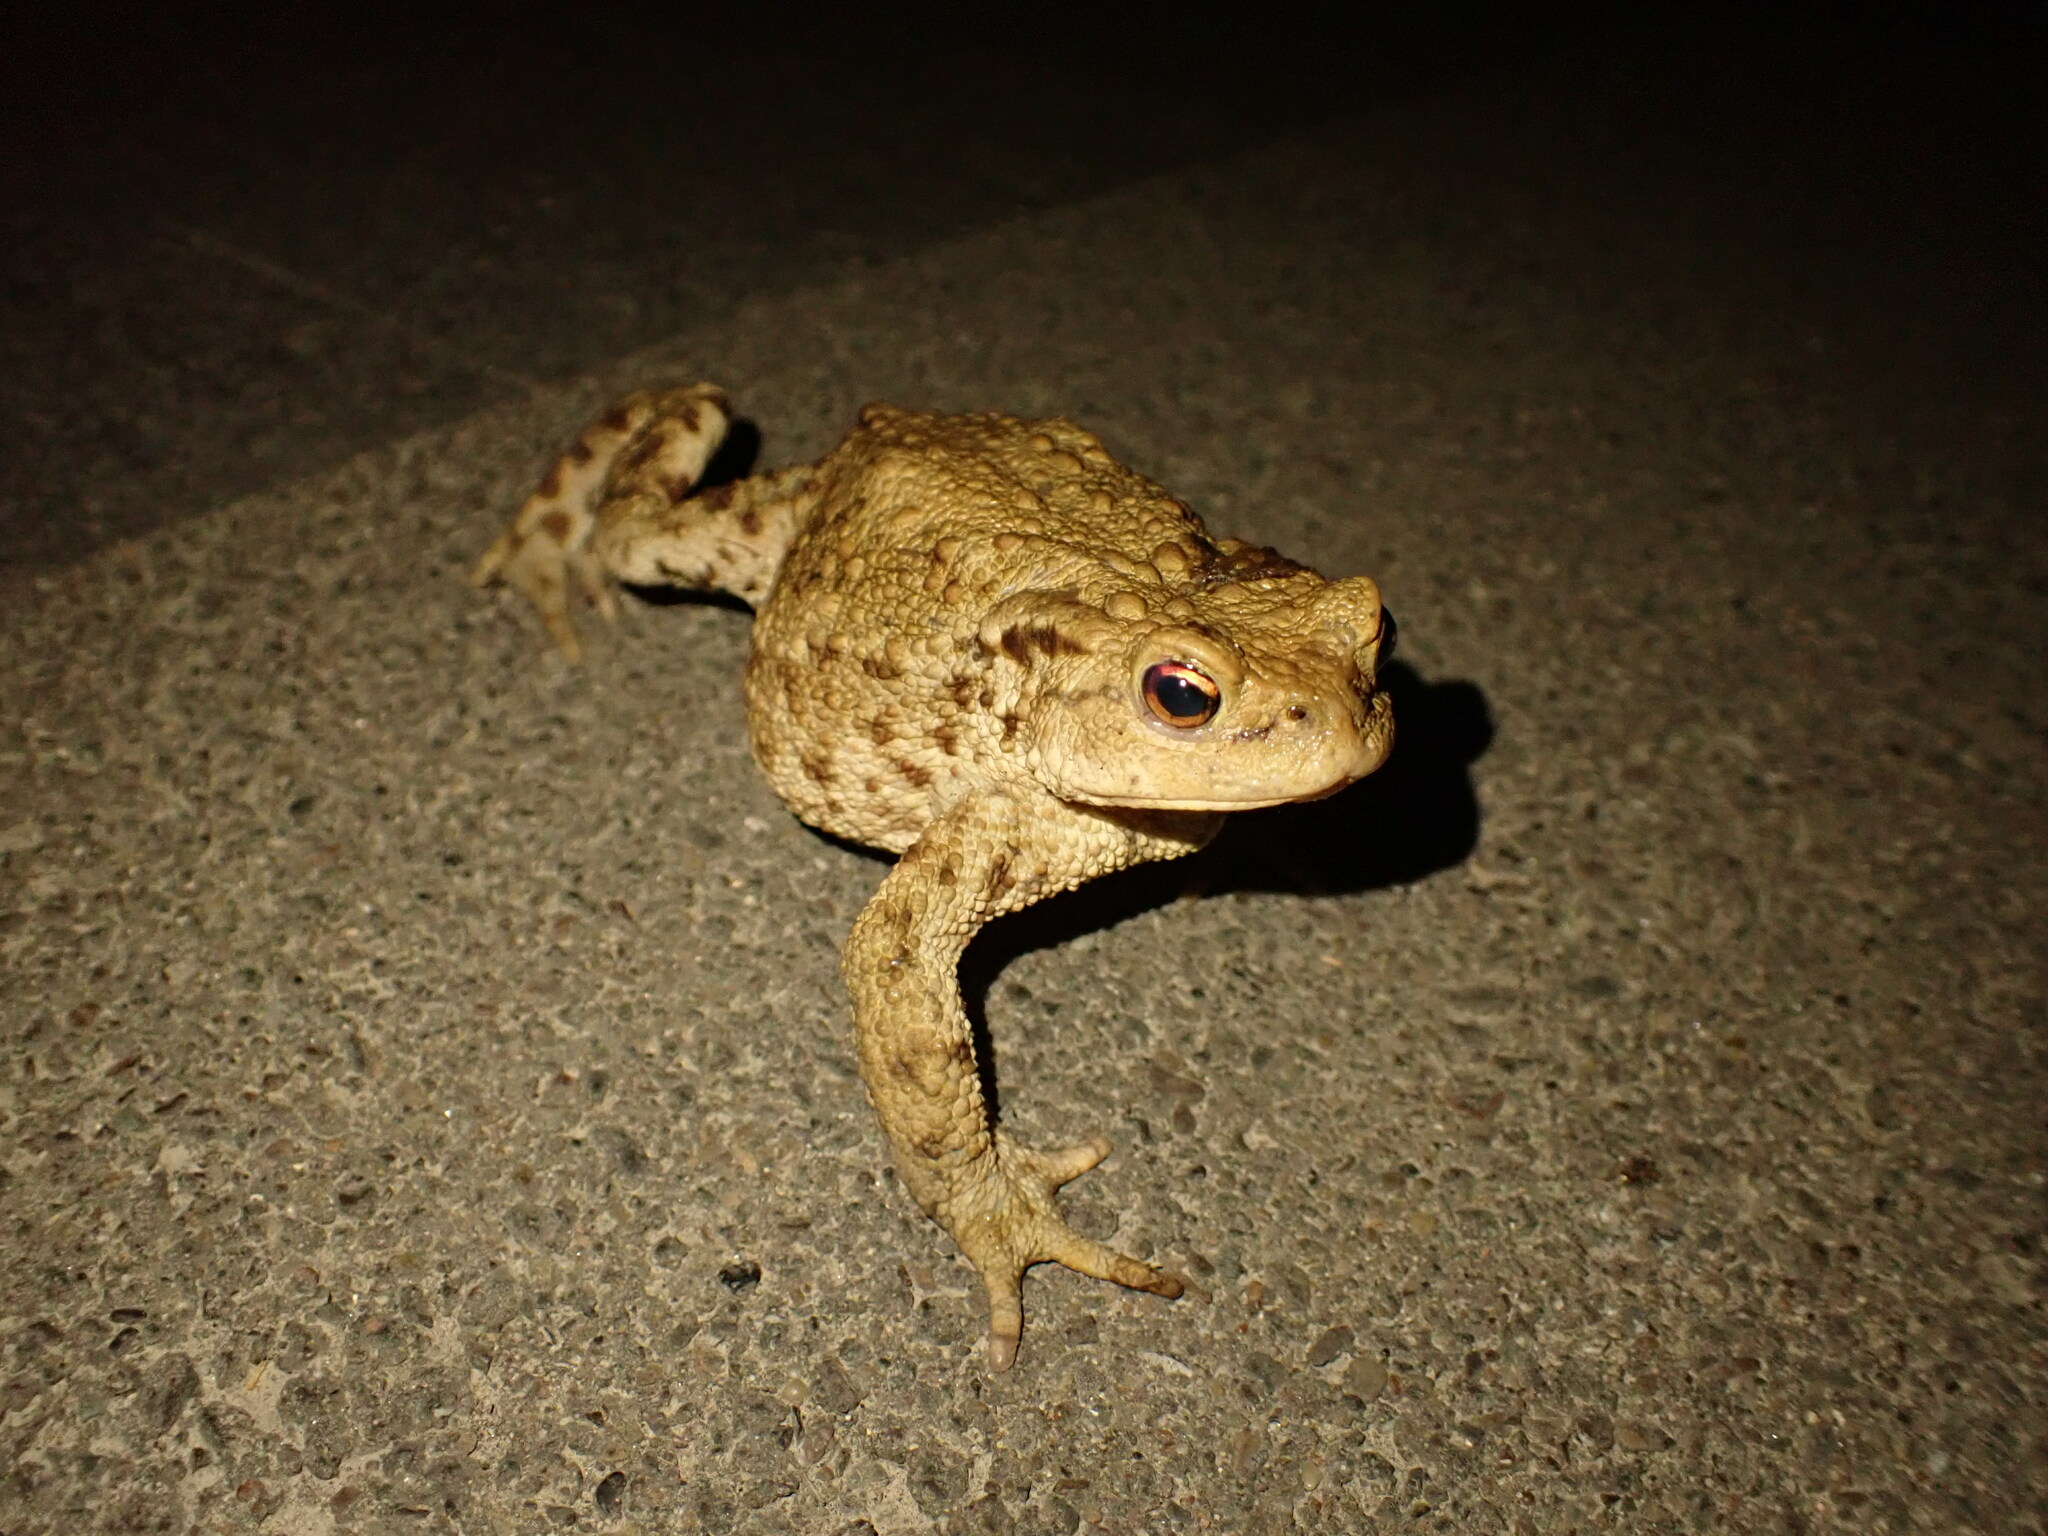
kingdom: Animalia
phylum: Chordata
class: Amphibia
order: Anura
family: Bufonidae
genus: Bufo
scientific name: Bufo bufo
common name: Common toad
